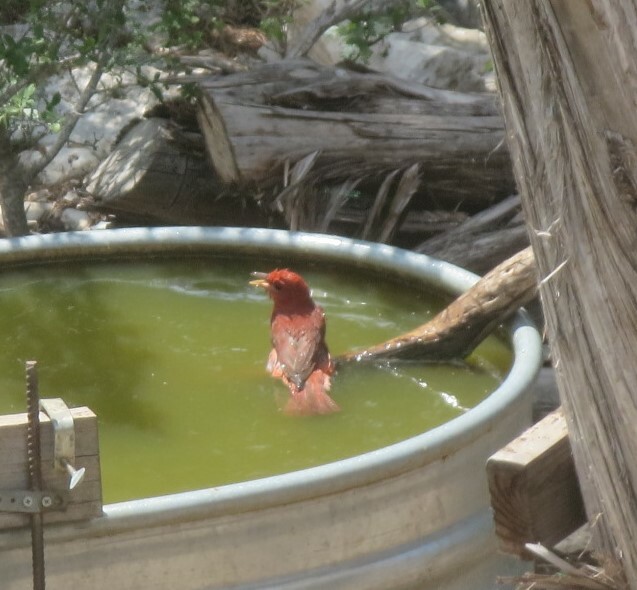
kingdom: Animalia
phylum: Chordata
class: Aves
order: Passeriformes
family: Cardinalidae
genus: Piranga
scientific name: Piranga rubra
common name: Summer tanager
